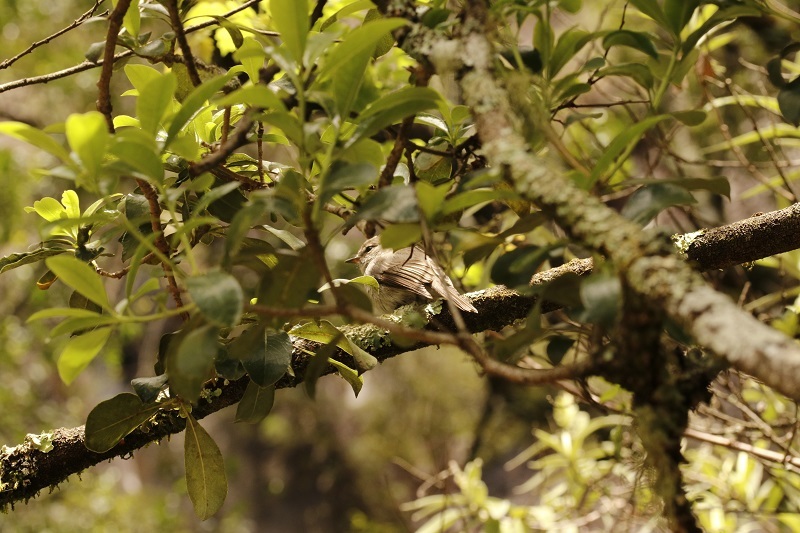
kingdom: Animalia
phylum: Chordata
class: Aves
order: Passeriformes
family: Muscicapidae
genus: Muscicapa
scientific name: Muscicapa adusta
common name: African dusky flycatcher
